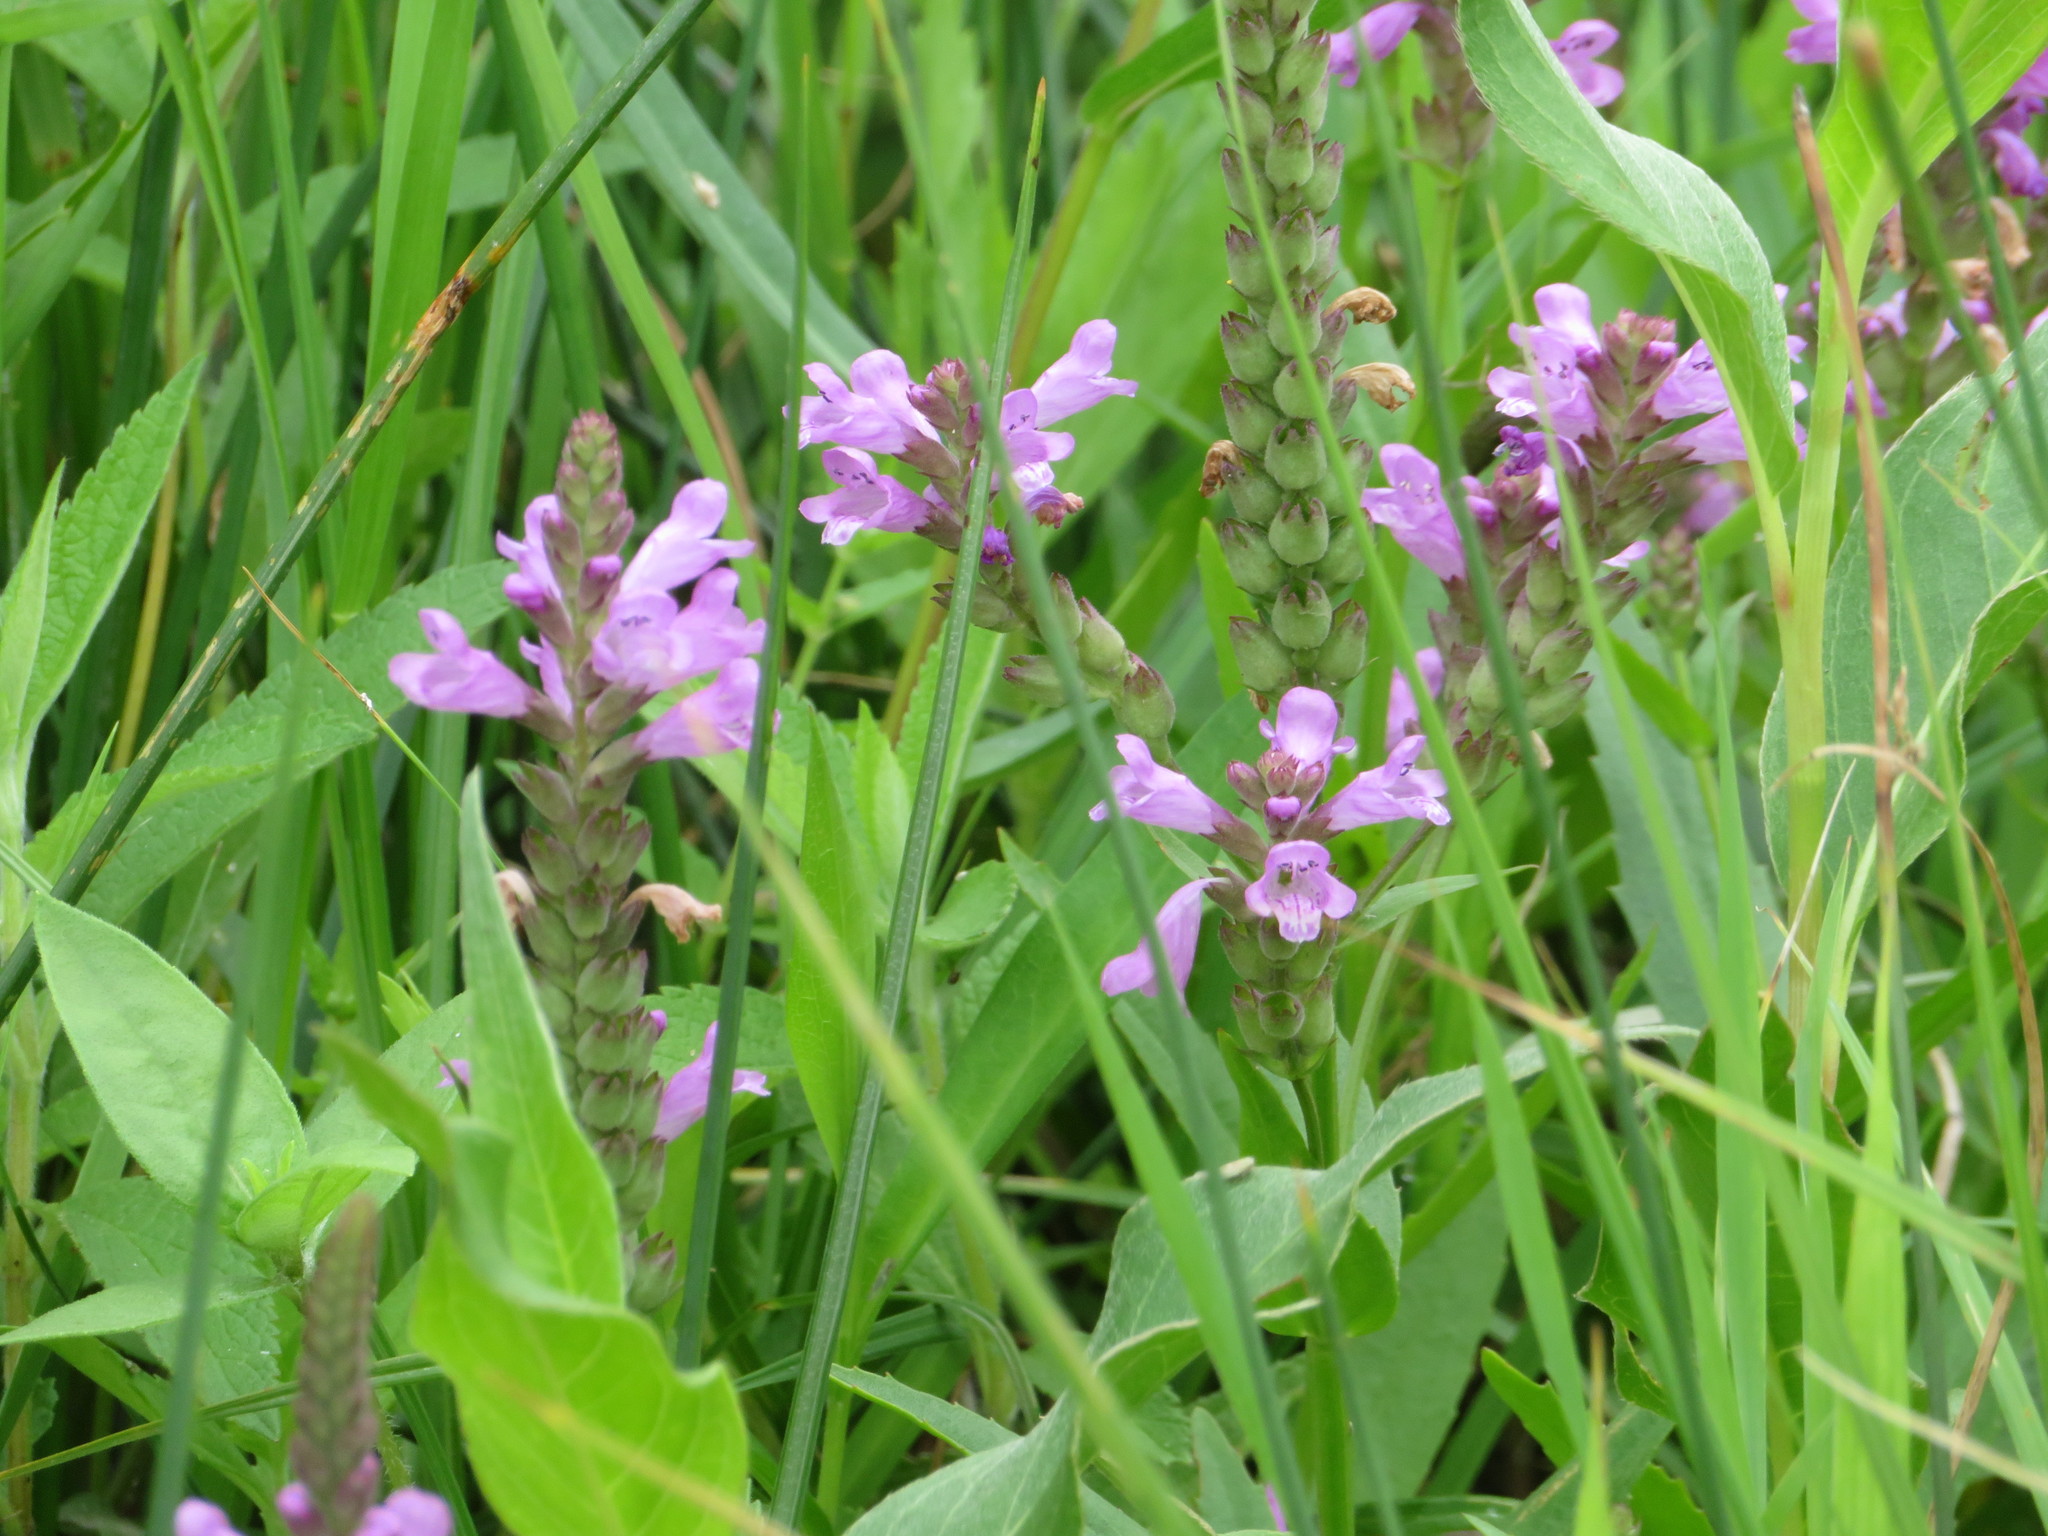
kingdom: Plantae
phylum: Tracheophyta
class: Magnoliopsida
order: Lamiales
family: Lamiaceae
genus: Physostegia
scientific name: Physostegia ledinghamii
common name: Ledingham's false dragonhead
